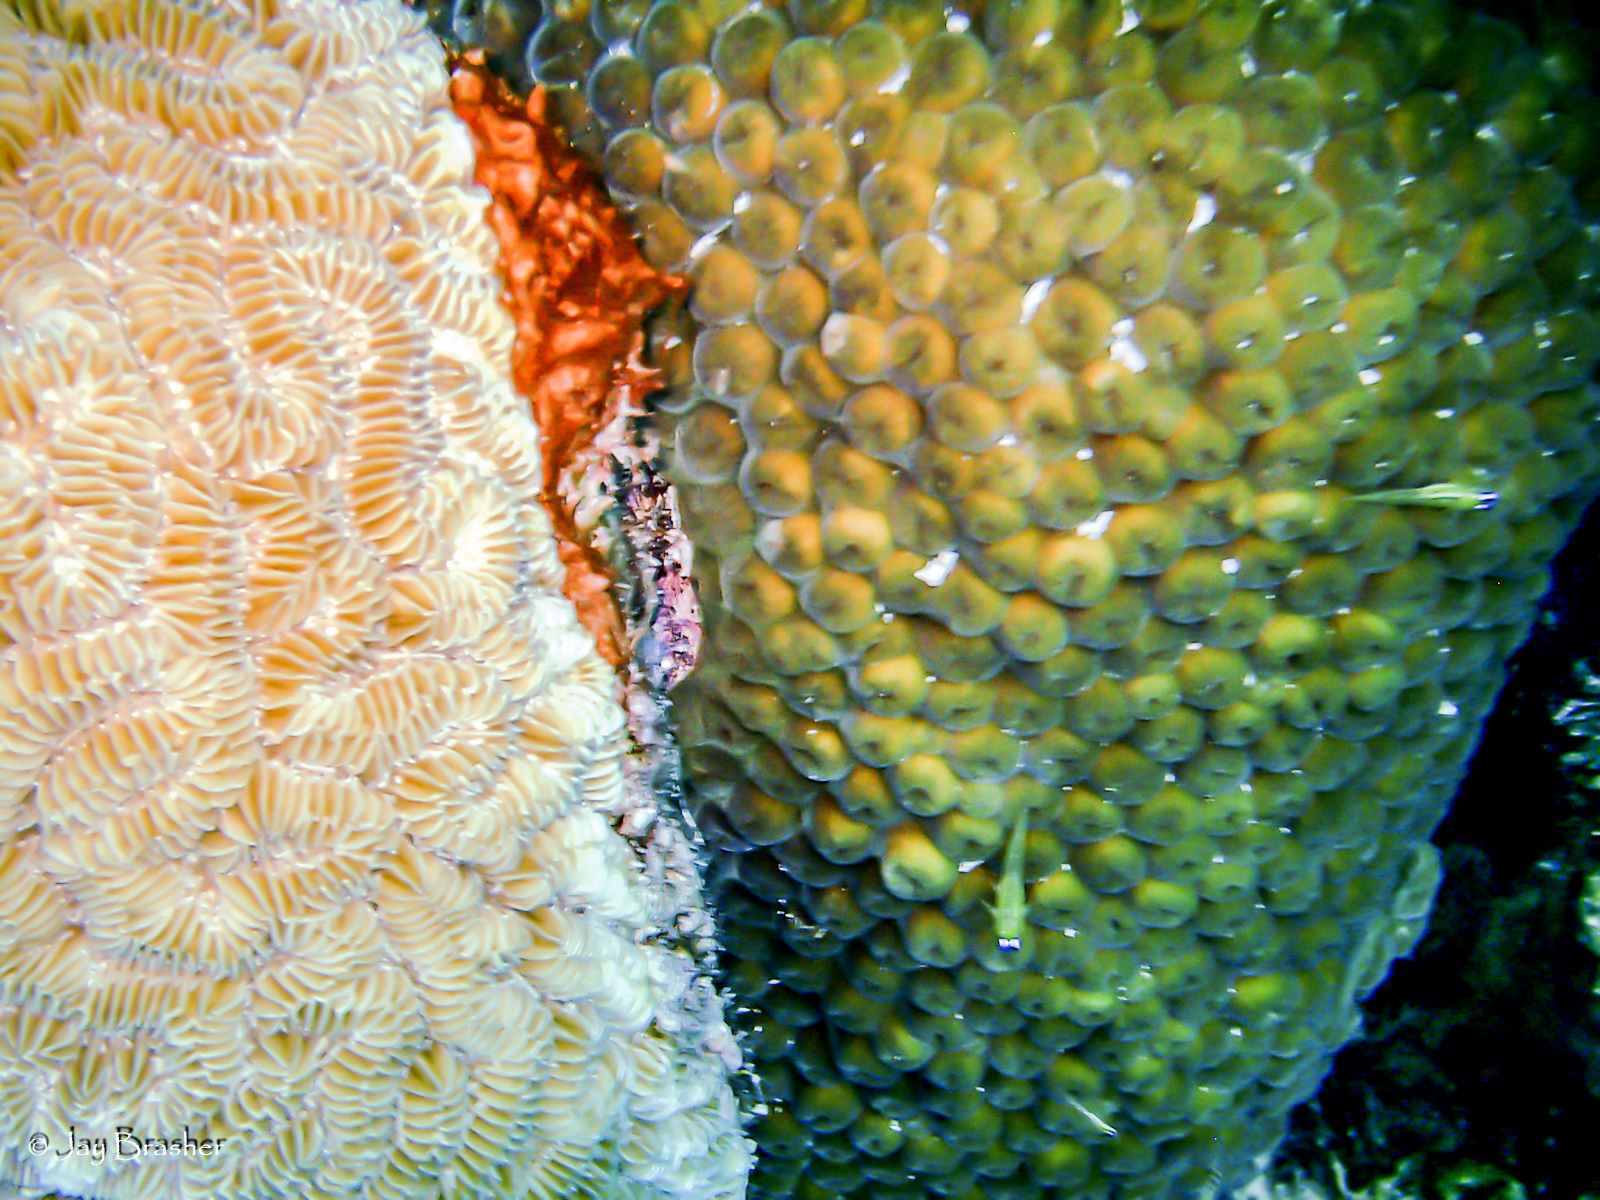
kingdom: Animalia
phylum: Cnidaria
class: Anthozoa
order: Scleractinia
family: Montastraeidae
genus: Montastraea
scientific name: Montastraea cavernosa
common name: Great star coral
